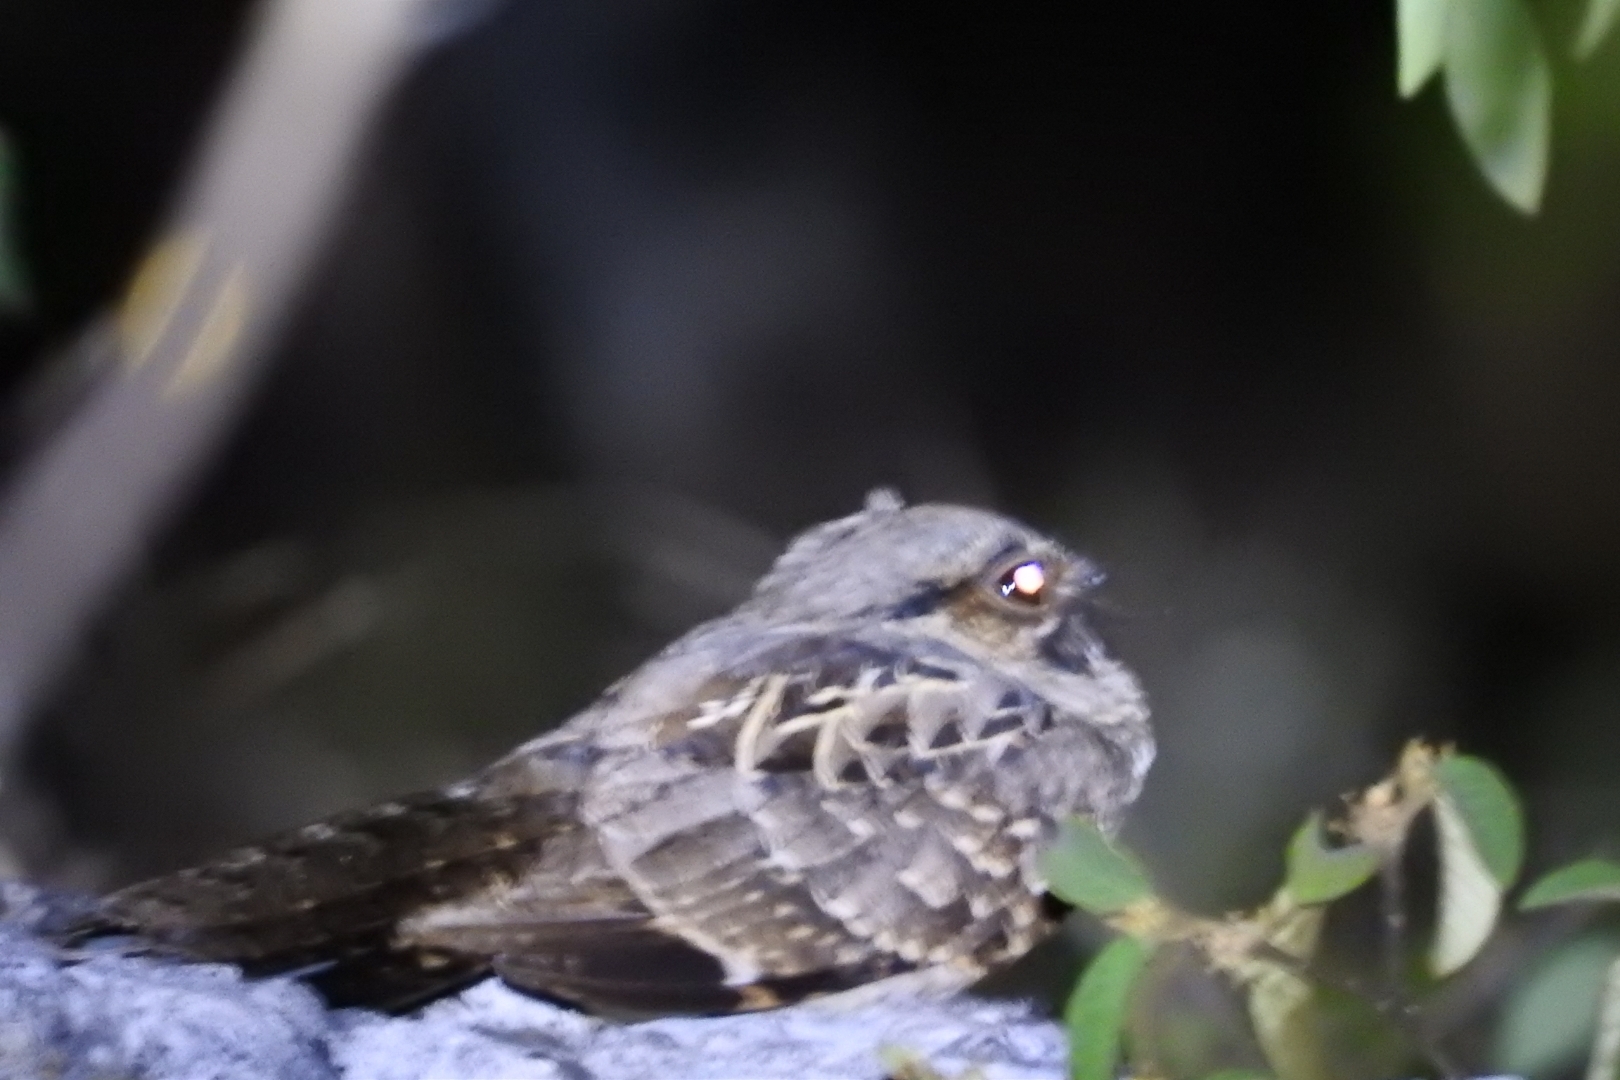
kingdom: Animalia
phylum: Chordata
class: Aves
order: Caprimulgiformes
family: Caprimulgidae
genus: Nyctidromus
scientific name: Nyctidromus albicollis
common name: Pauraque
